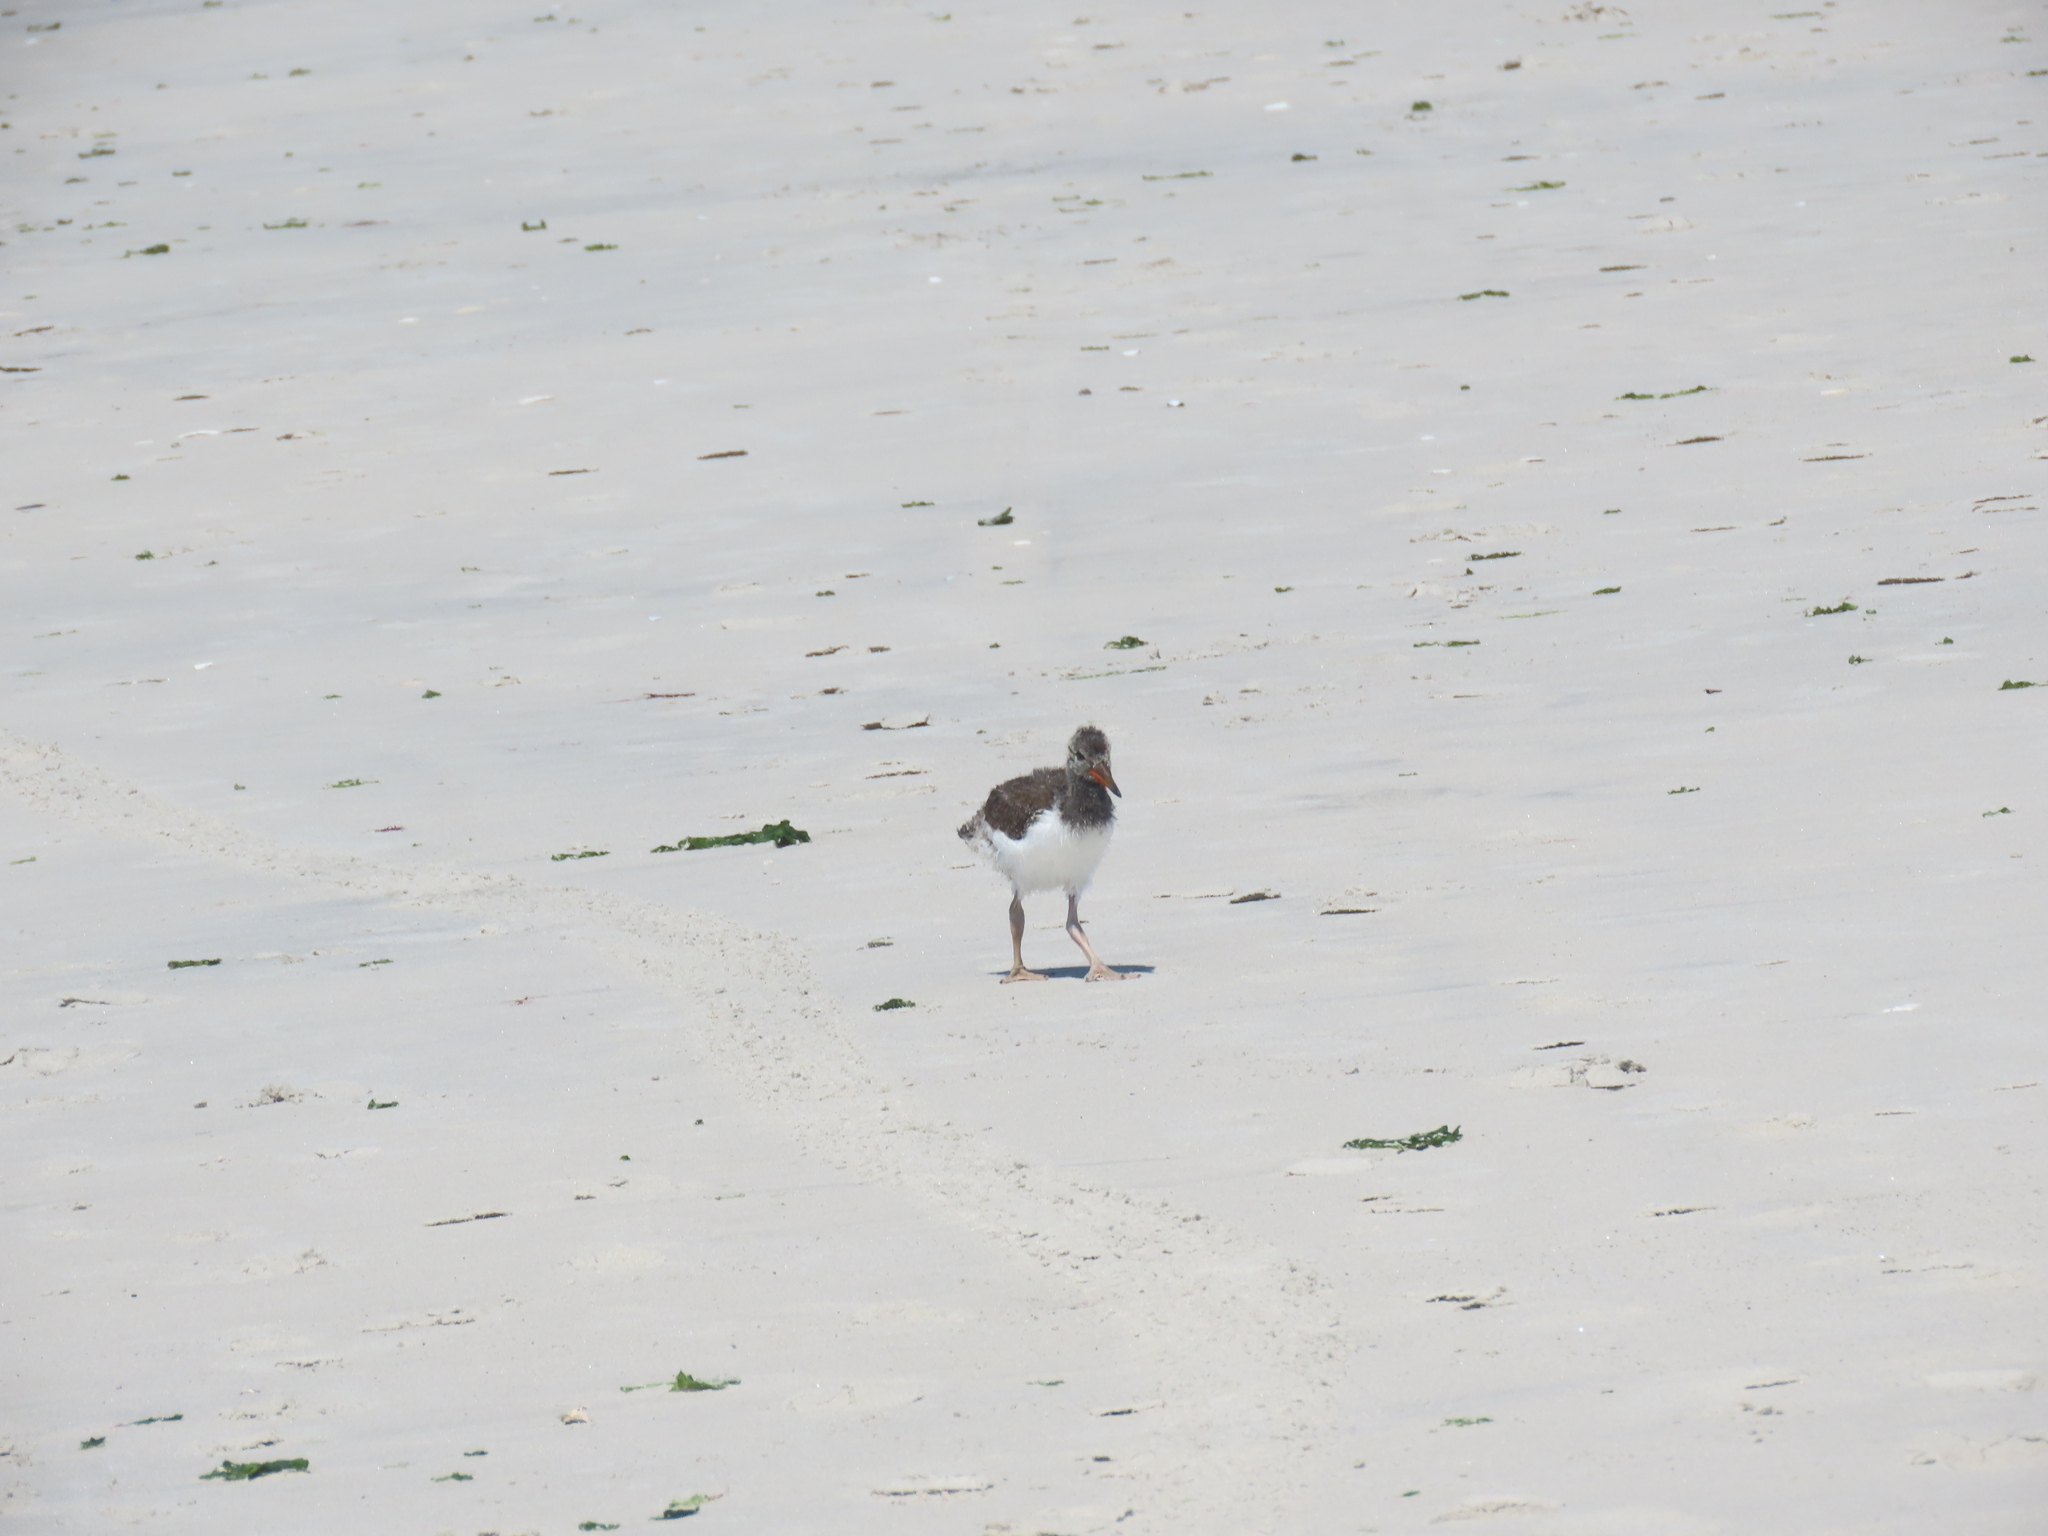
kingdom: Animalia
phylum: Chordata
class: Aves
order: Charadriiformes
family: Haematopodidae
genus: Haematopus
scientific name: Haematopus palliatus
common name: American oystercatcher
